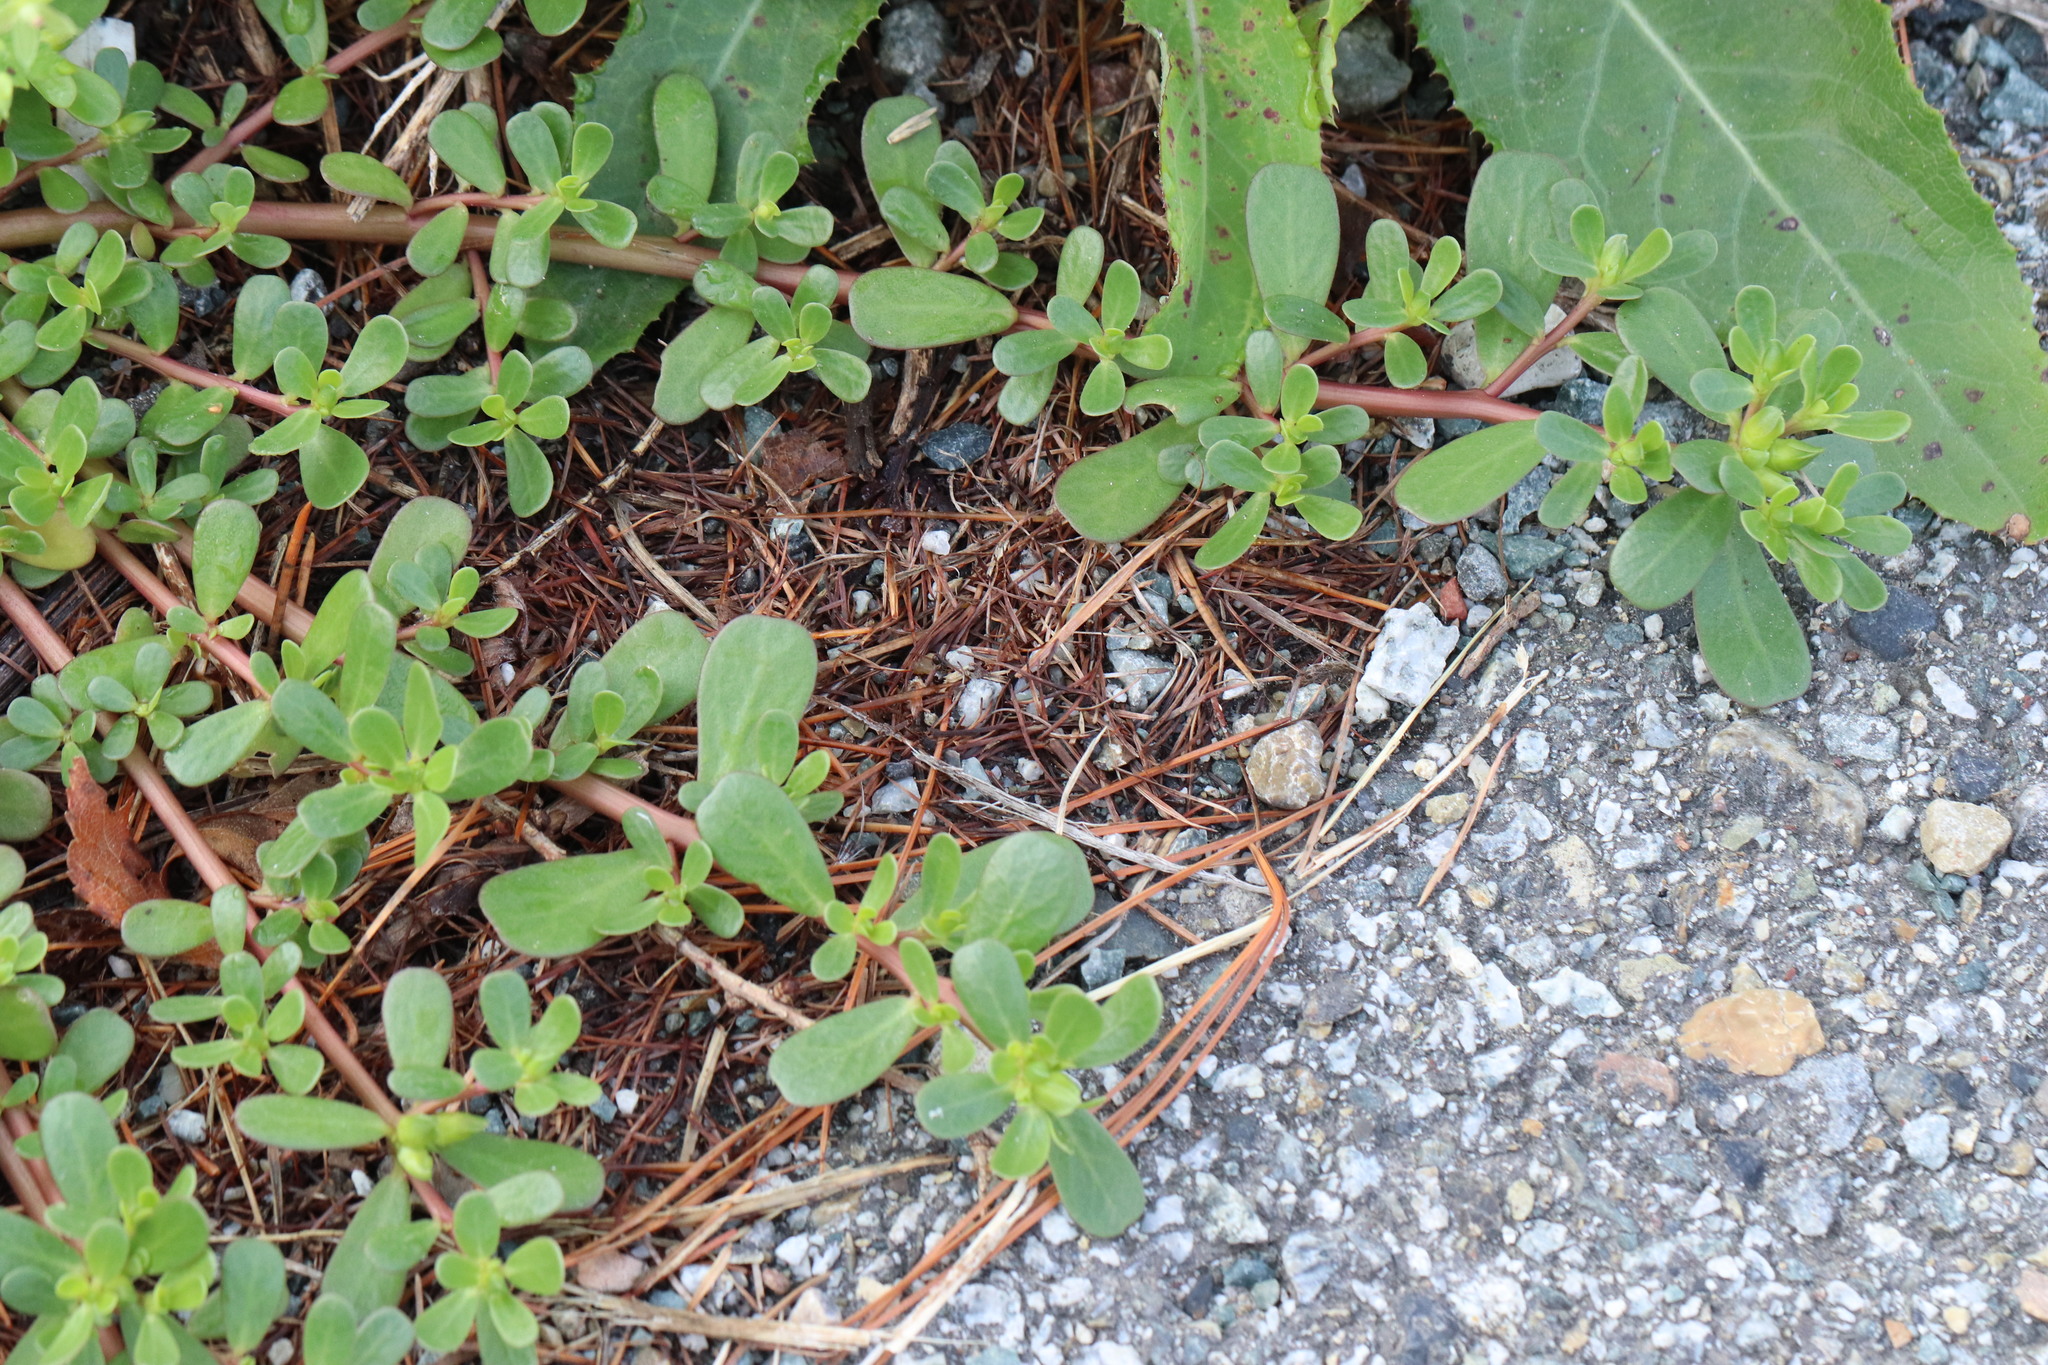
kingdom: Plantae
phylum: Tracheophyta
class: Magnoliopsida
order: Caryophyllales
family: Portulacaceae
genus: Portulaca
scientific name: Portulaca oleracea
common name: Common purslane
